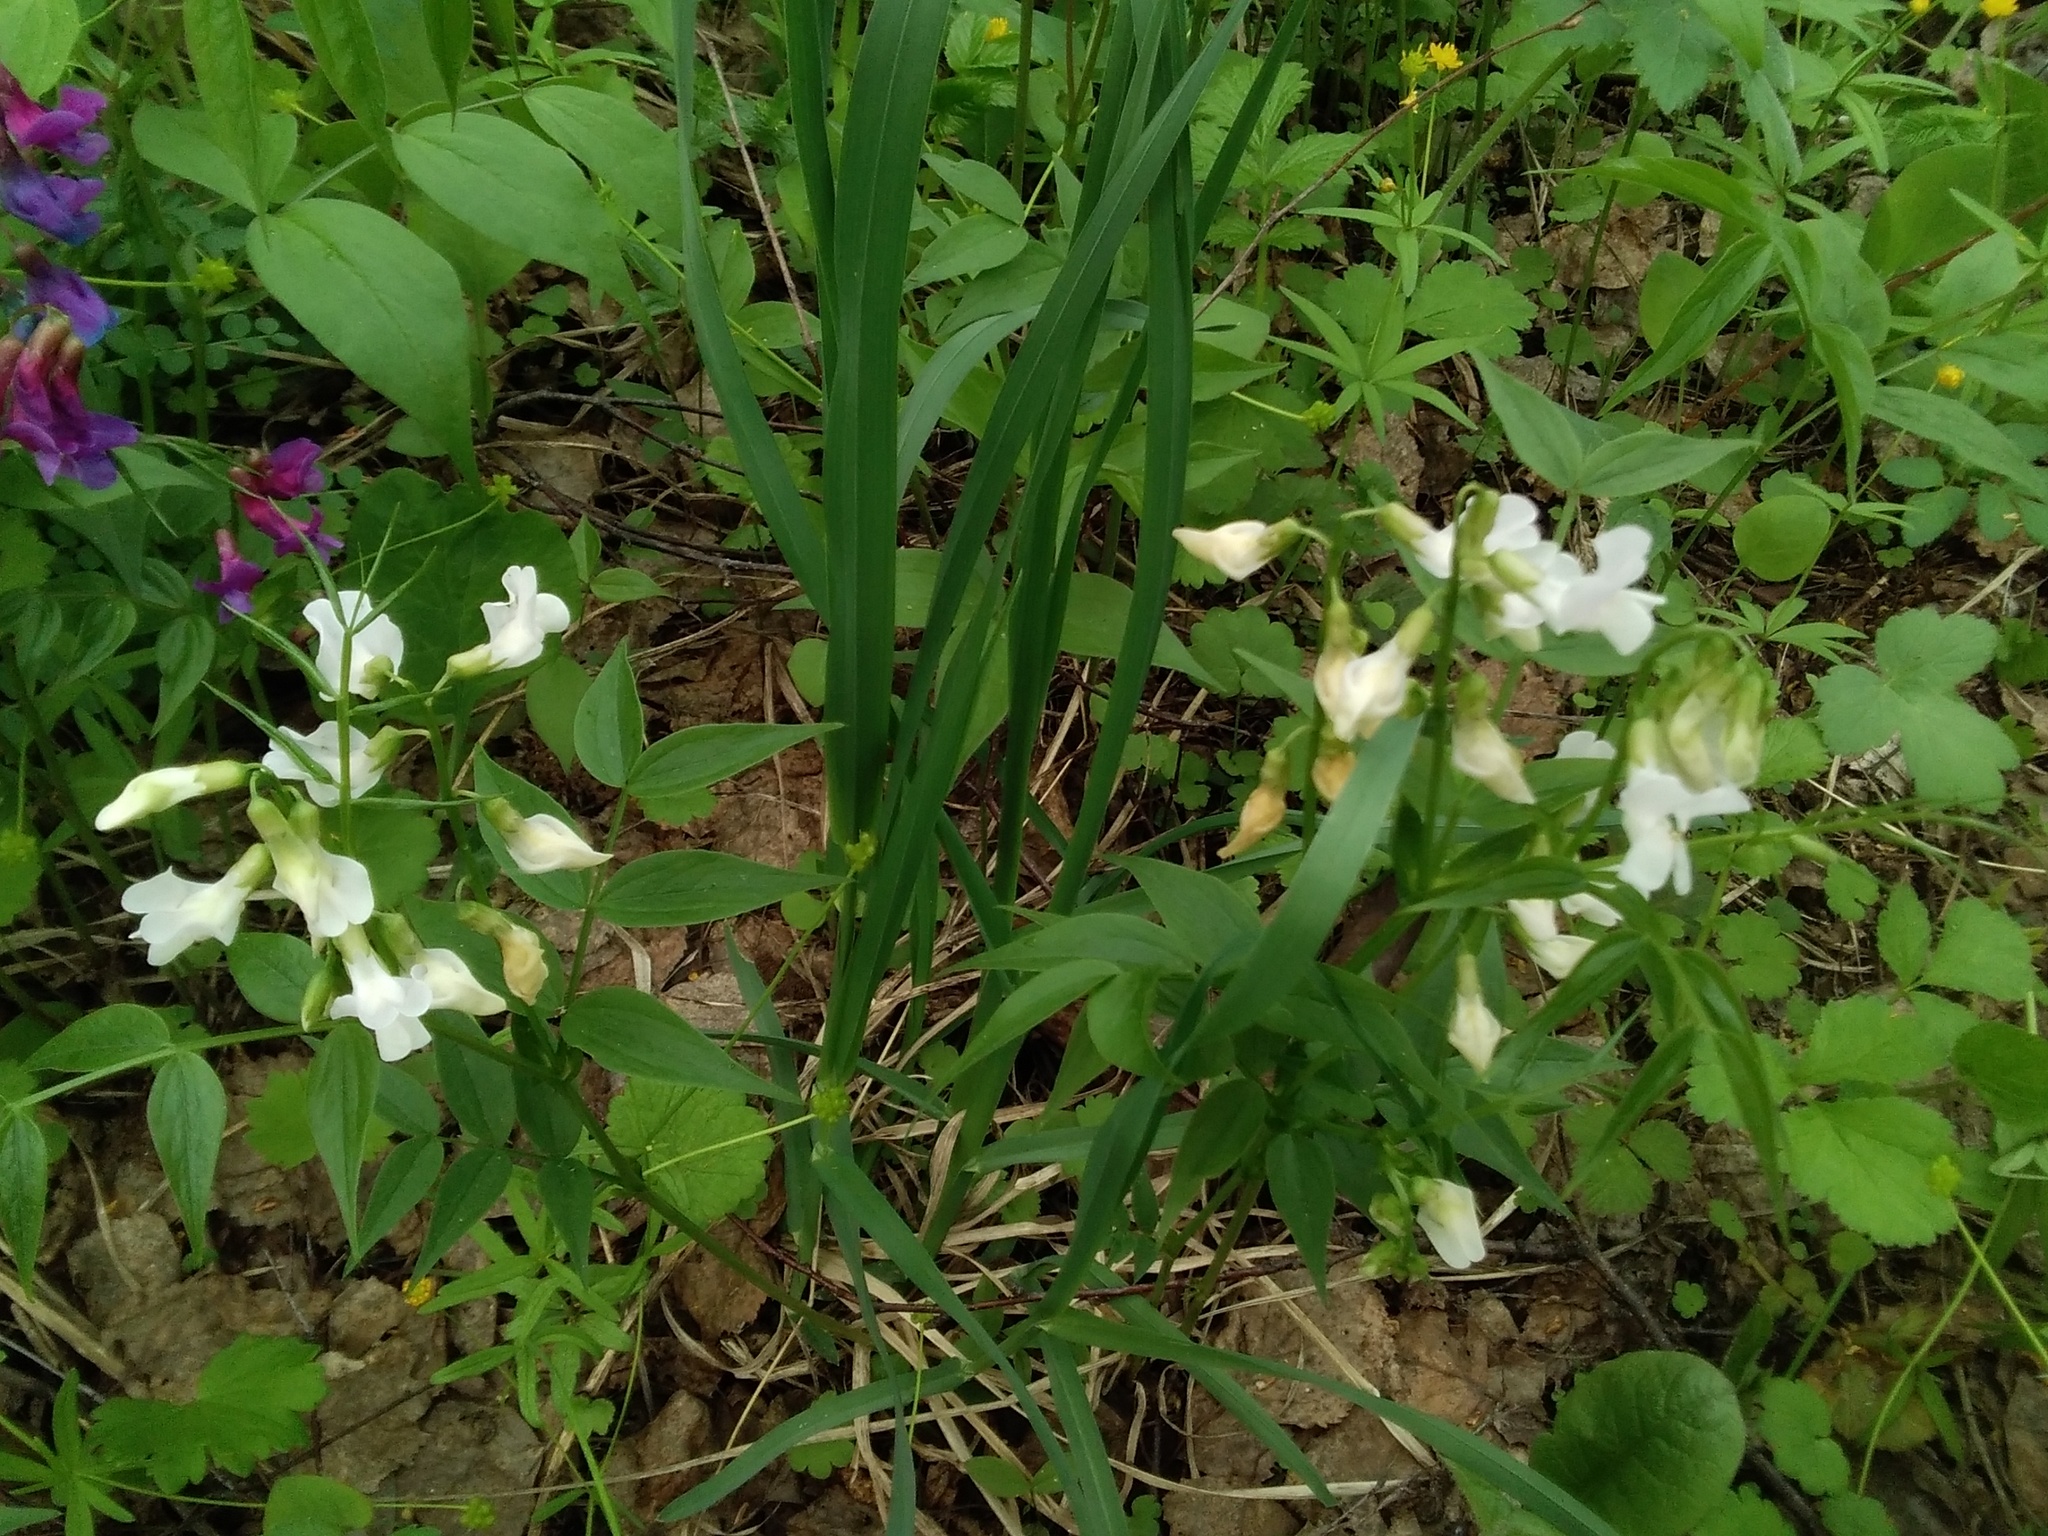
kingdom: Plantae
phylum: Tracheophyta
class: Magnoliopsida
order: Fabales
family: Fabaceae
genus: Lathyrus
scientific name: Lathyrus vernus
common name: Spring pea
